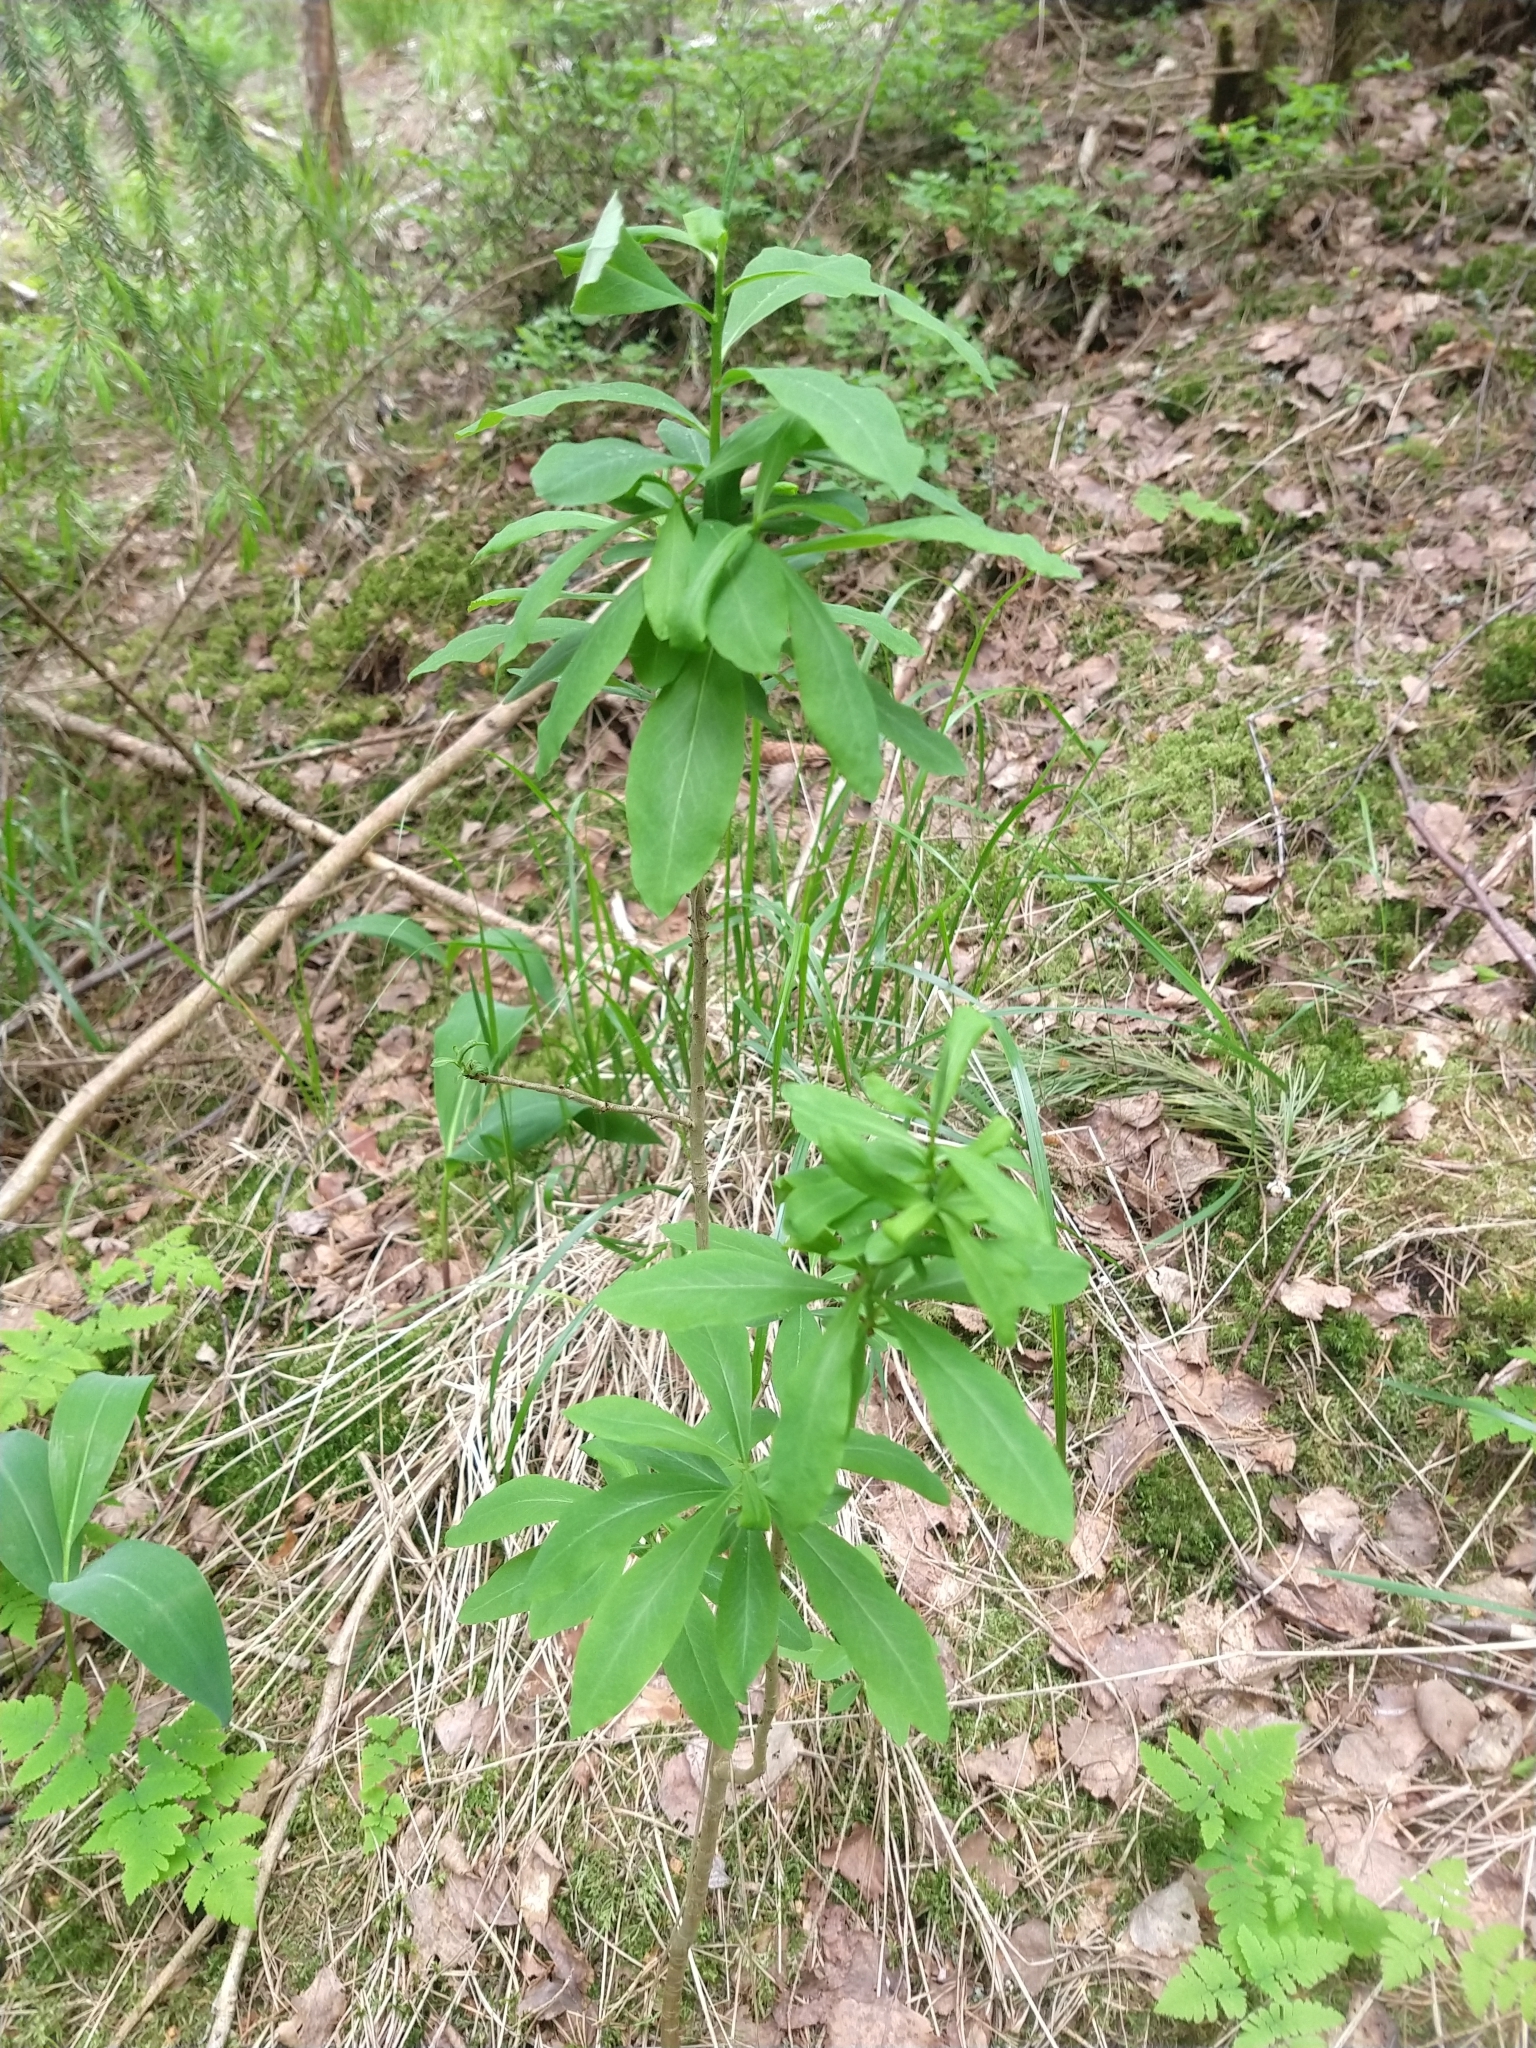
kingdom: Plantae
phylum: Tracheophyta
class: Magnoliopsida
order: Malvales
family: Thymelaeaceae
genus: Daphne
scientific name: Daphne mezereum
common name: Mezereon
